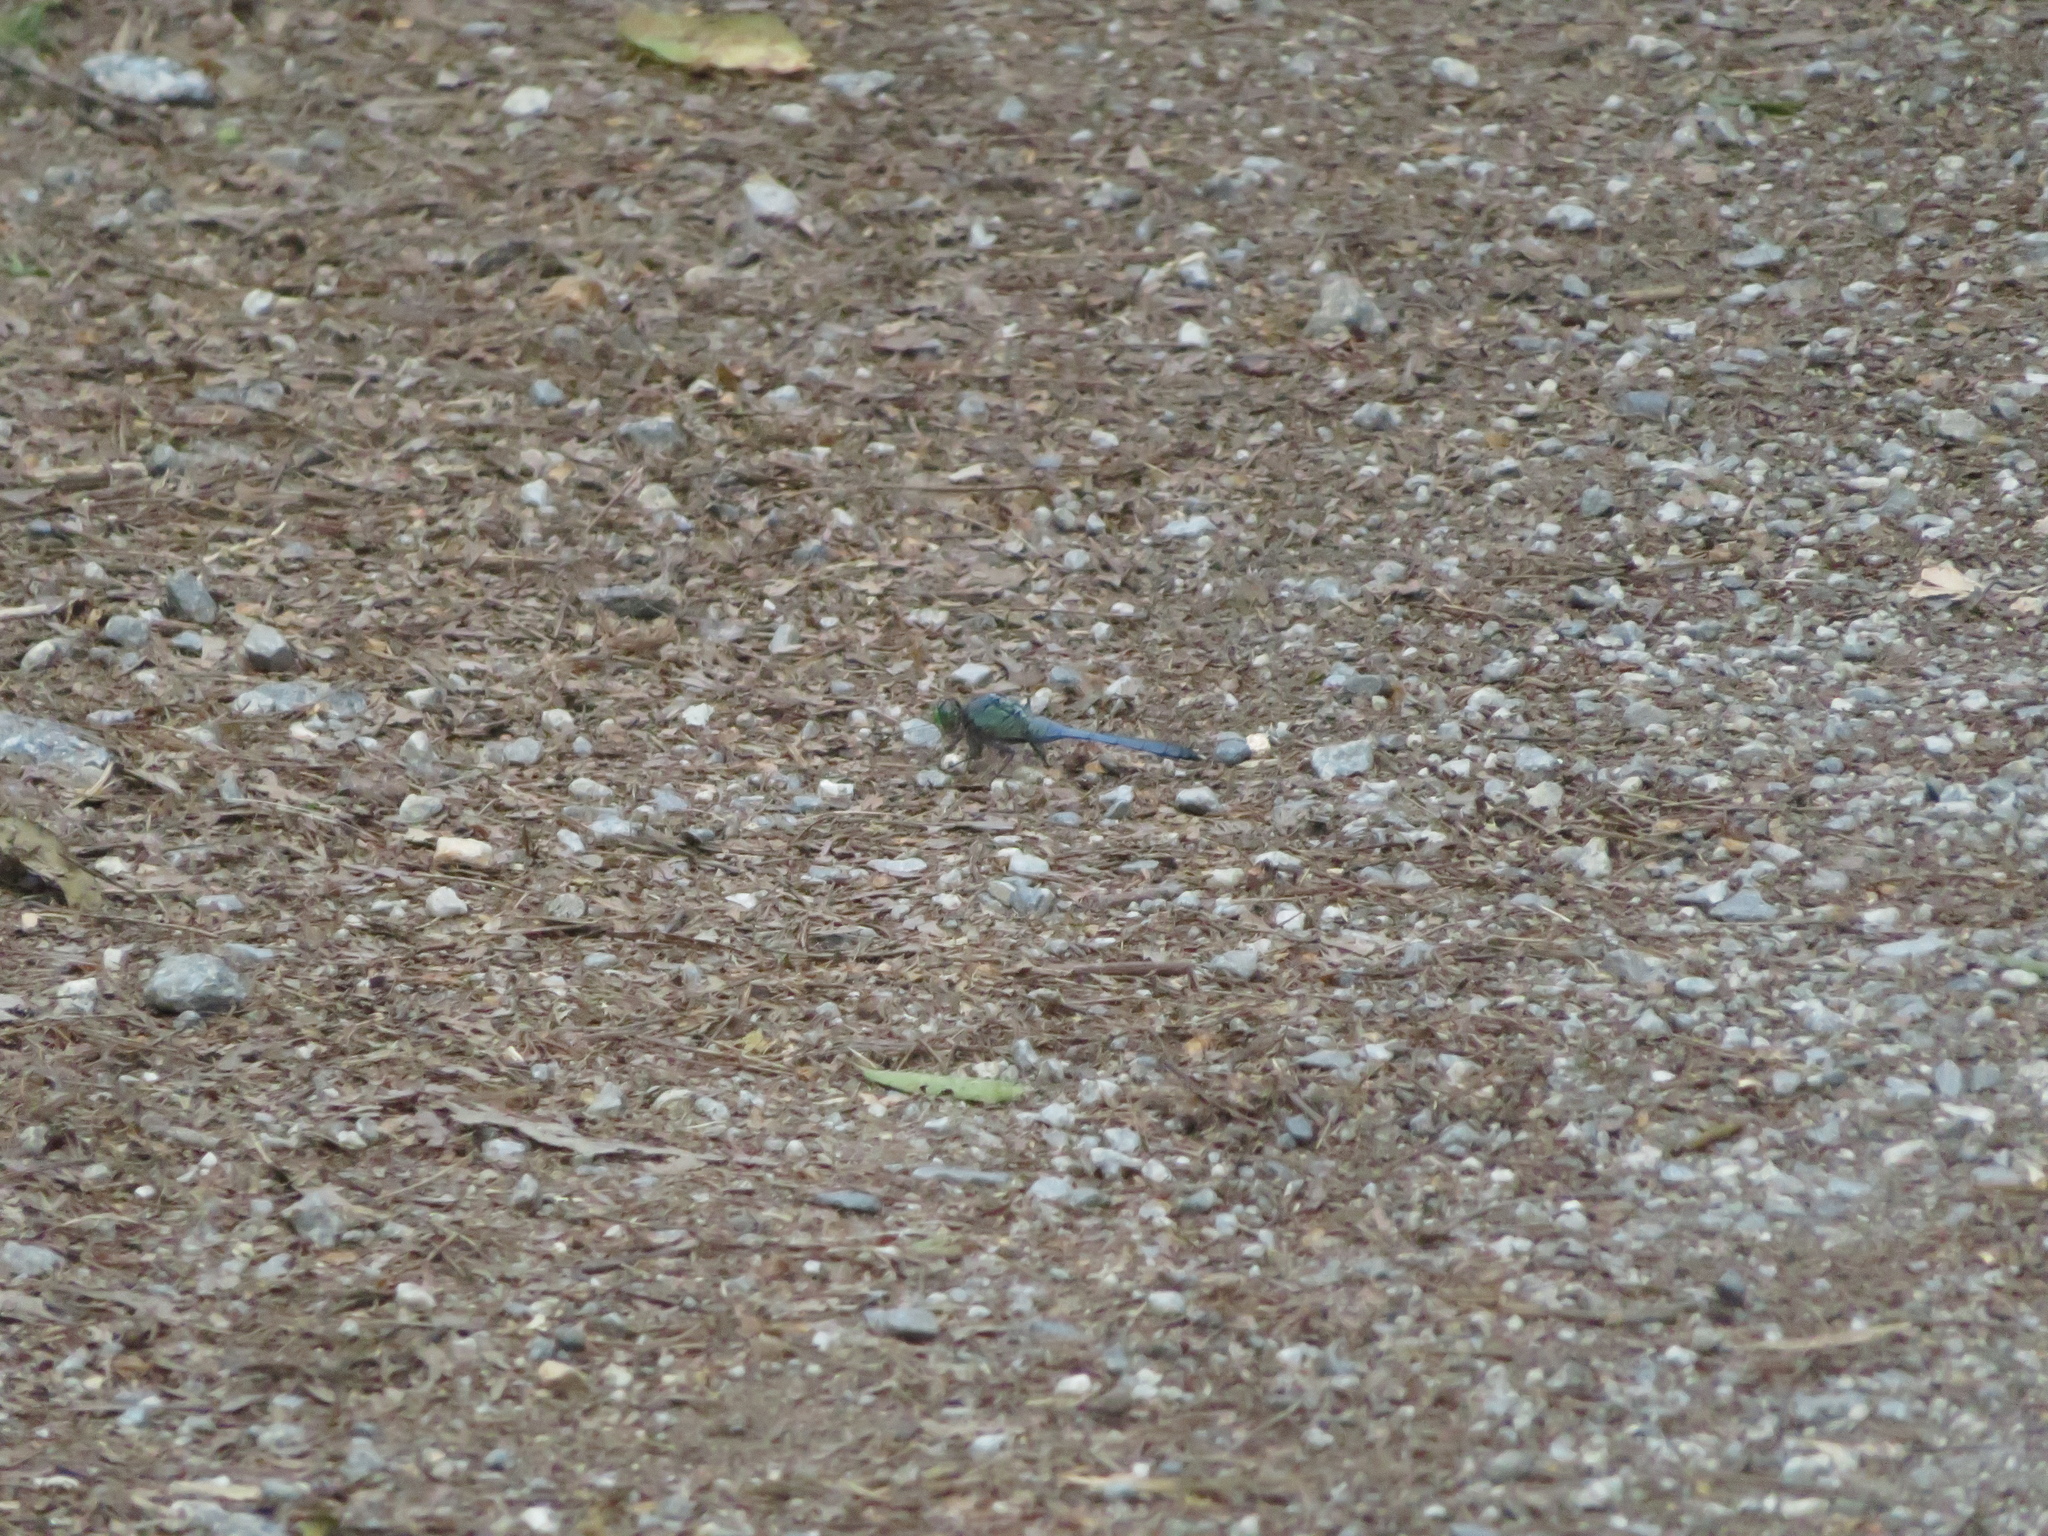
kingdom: Animalia
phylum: Arthropoda
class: Insecta
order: Odonata
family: Libellulidae
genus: Erythemis
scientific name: Erythemis simplicicollis
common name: Eastern pondhawk
